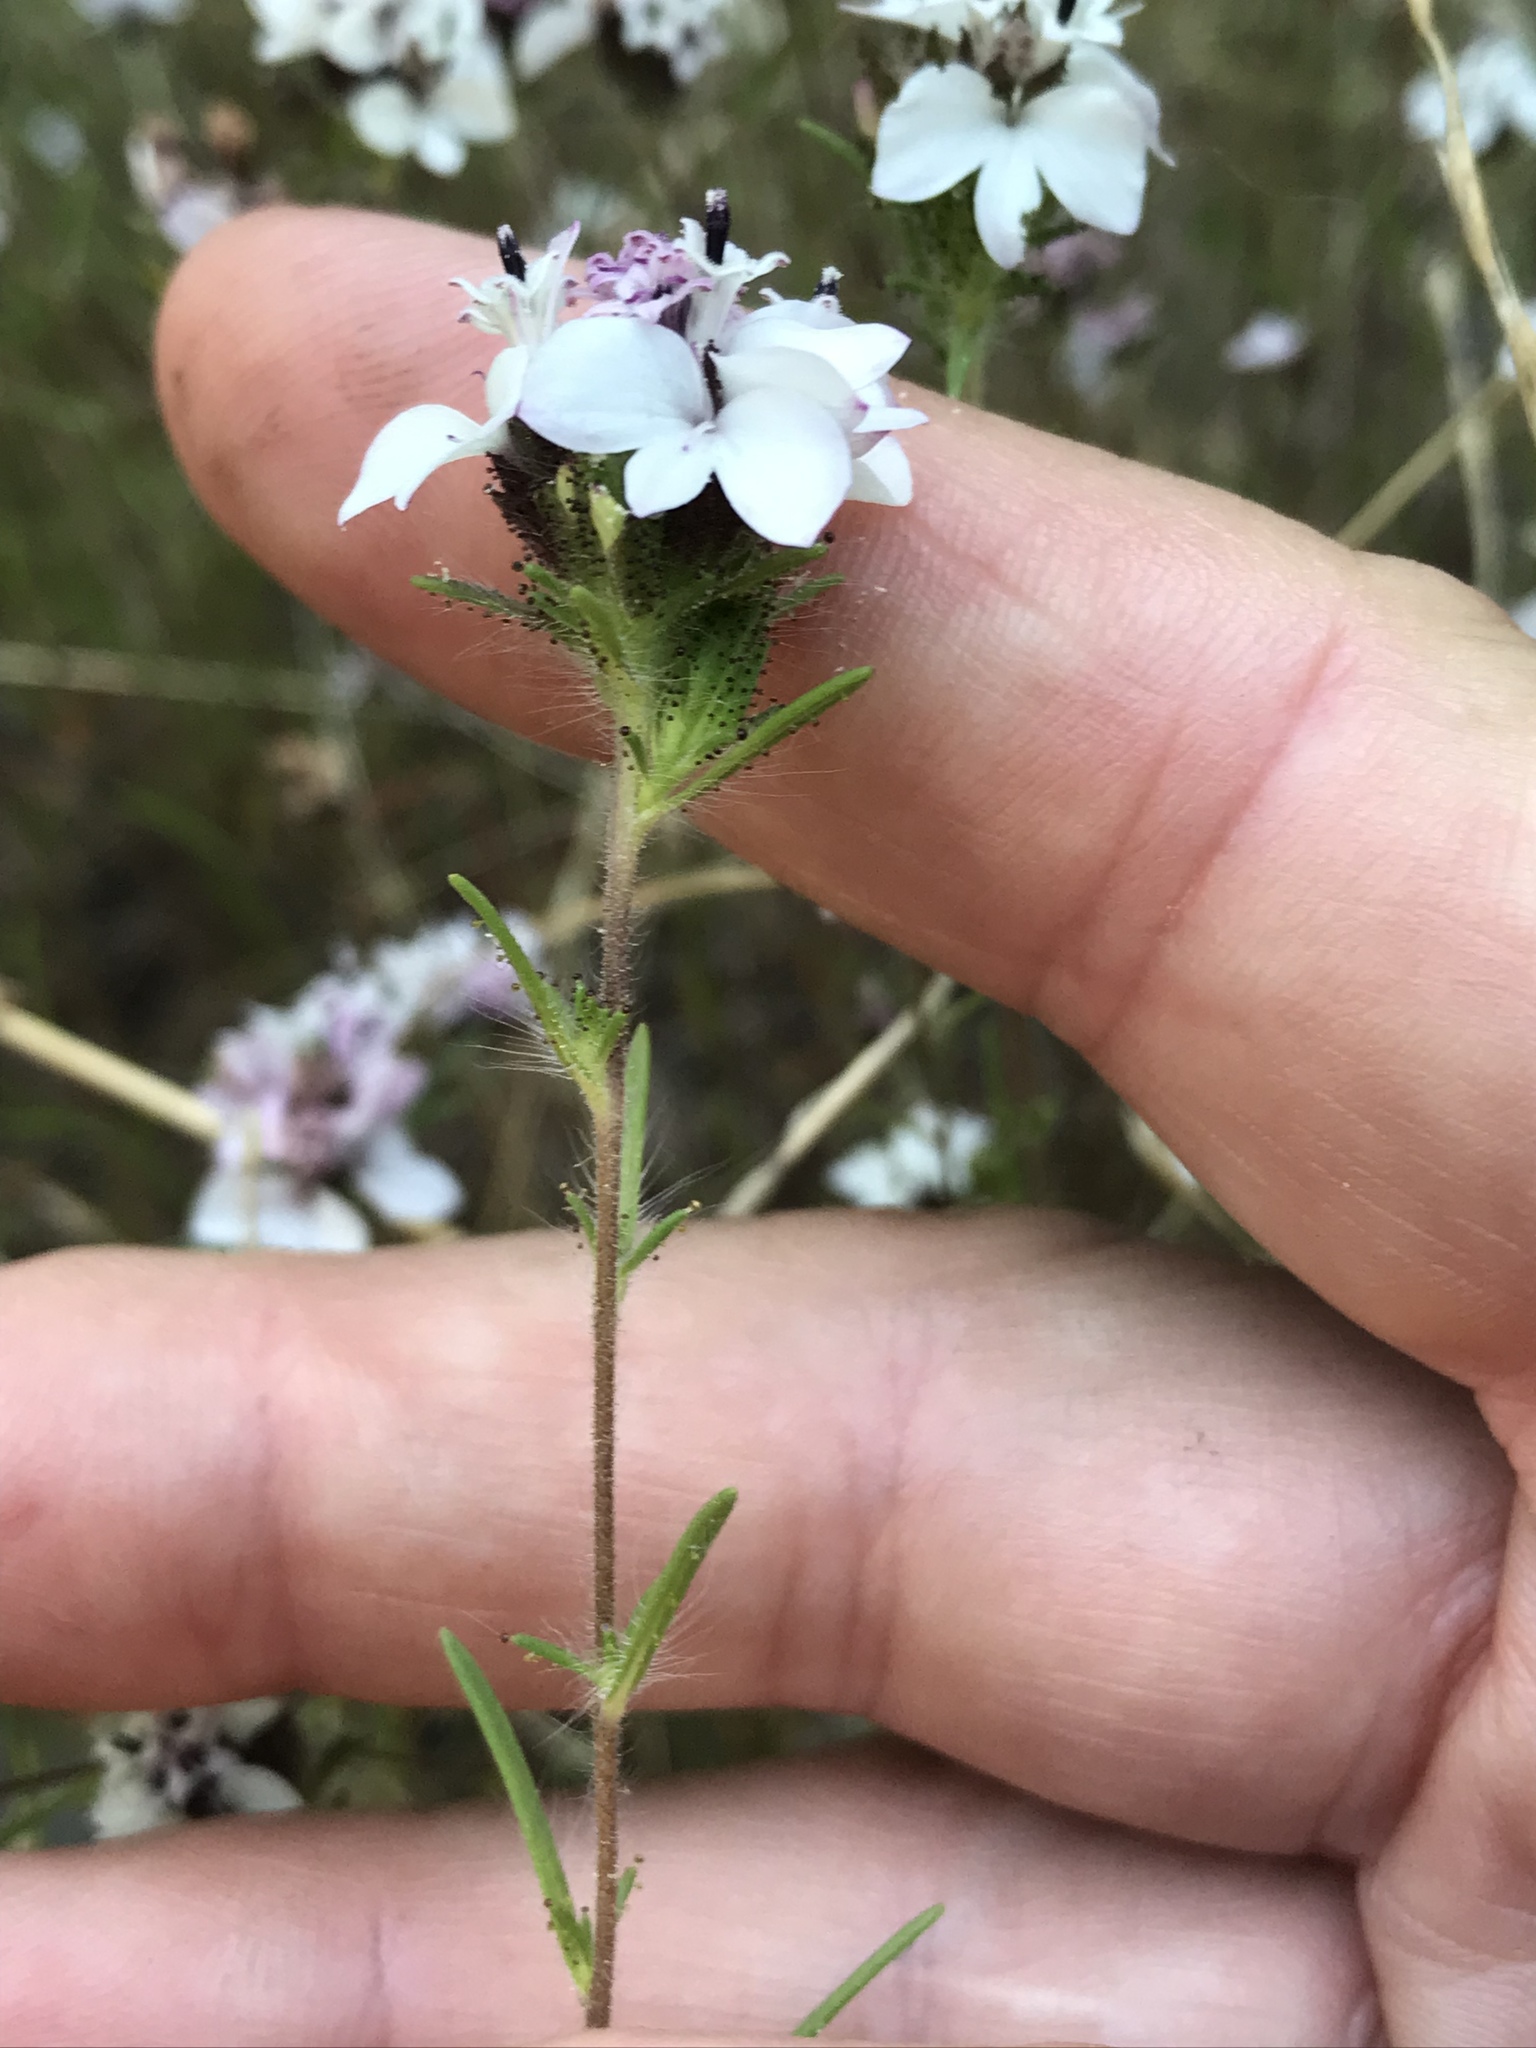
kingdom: Plantae
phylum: Tracheophyta
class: Magnoliopsida
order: Asterales
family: Asteraceae
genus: Calycadenia
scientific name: Calycadenia multiglandulosa
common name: Sticky calycadenia
